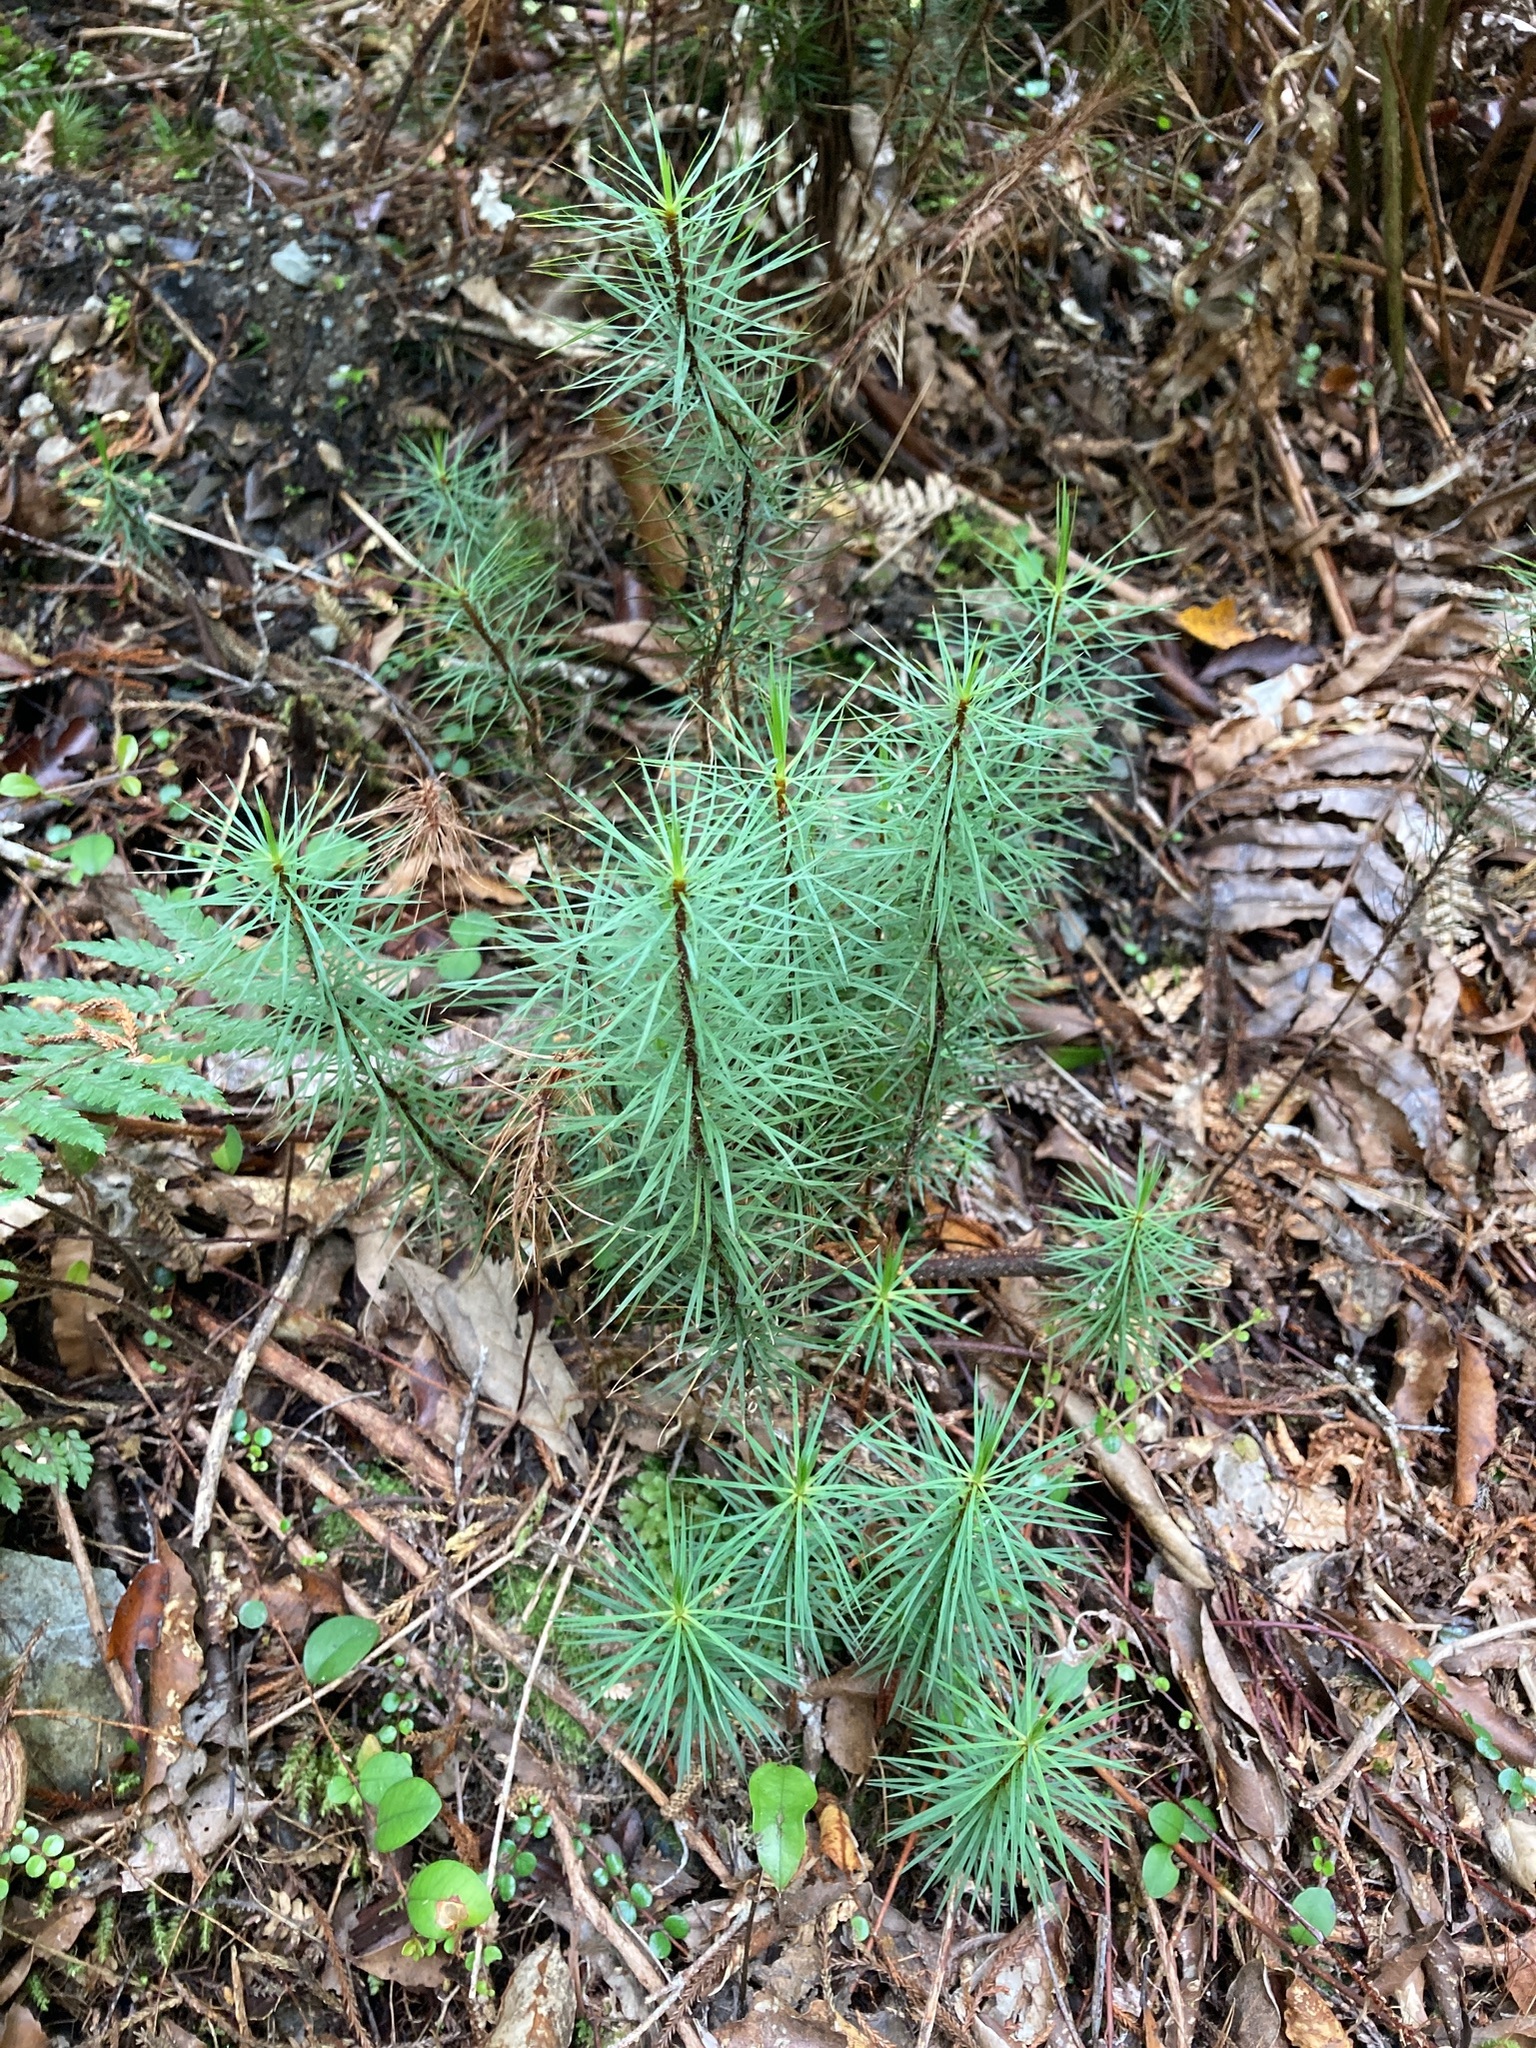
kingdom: Plantae
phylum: Bryophyta
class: Polytrichopsida
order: Polytrichales
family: Polytrichaceae
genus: Dawsonia
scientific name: Dawsonia superba
